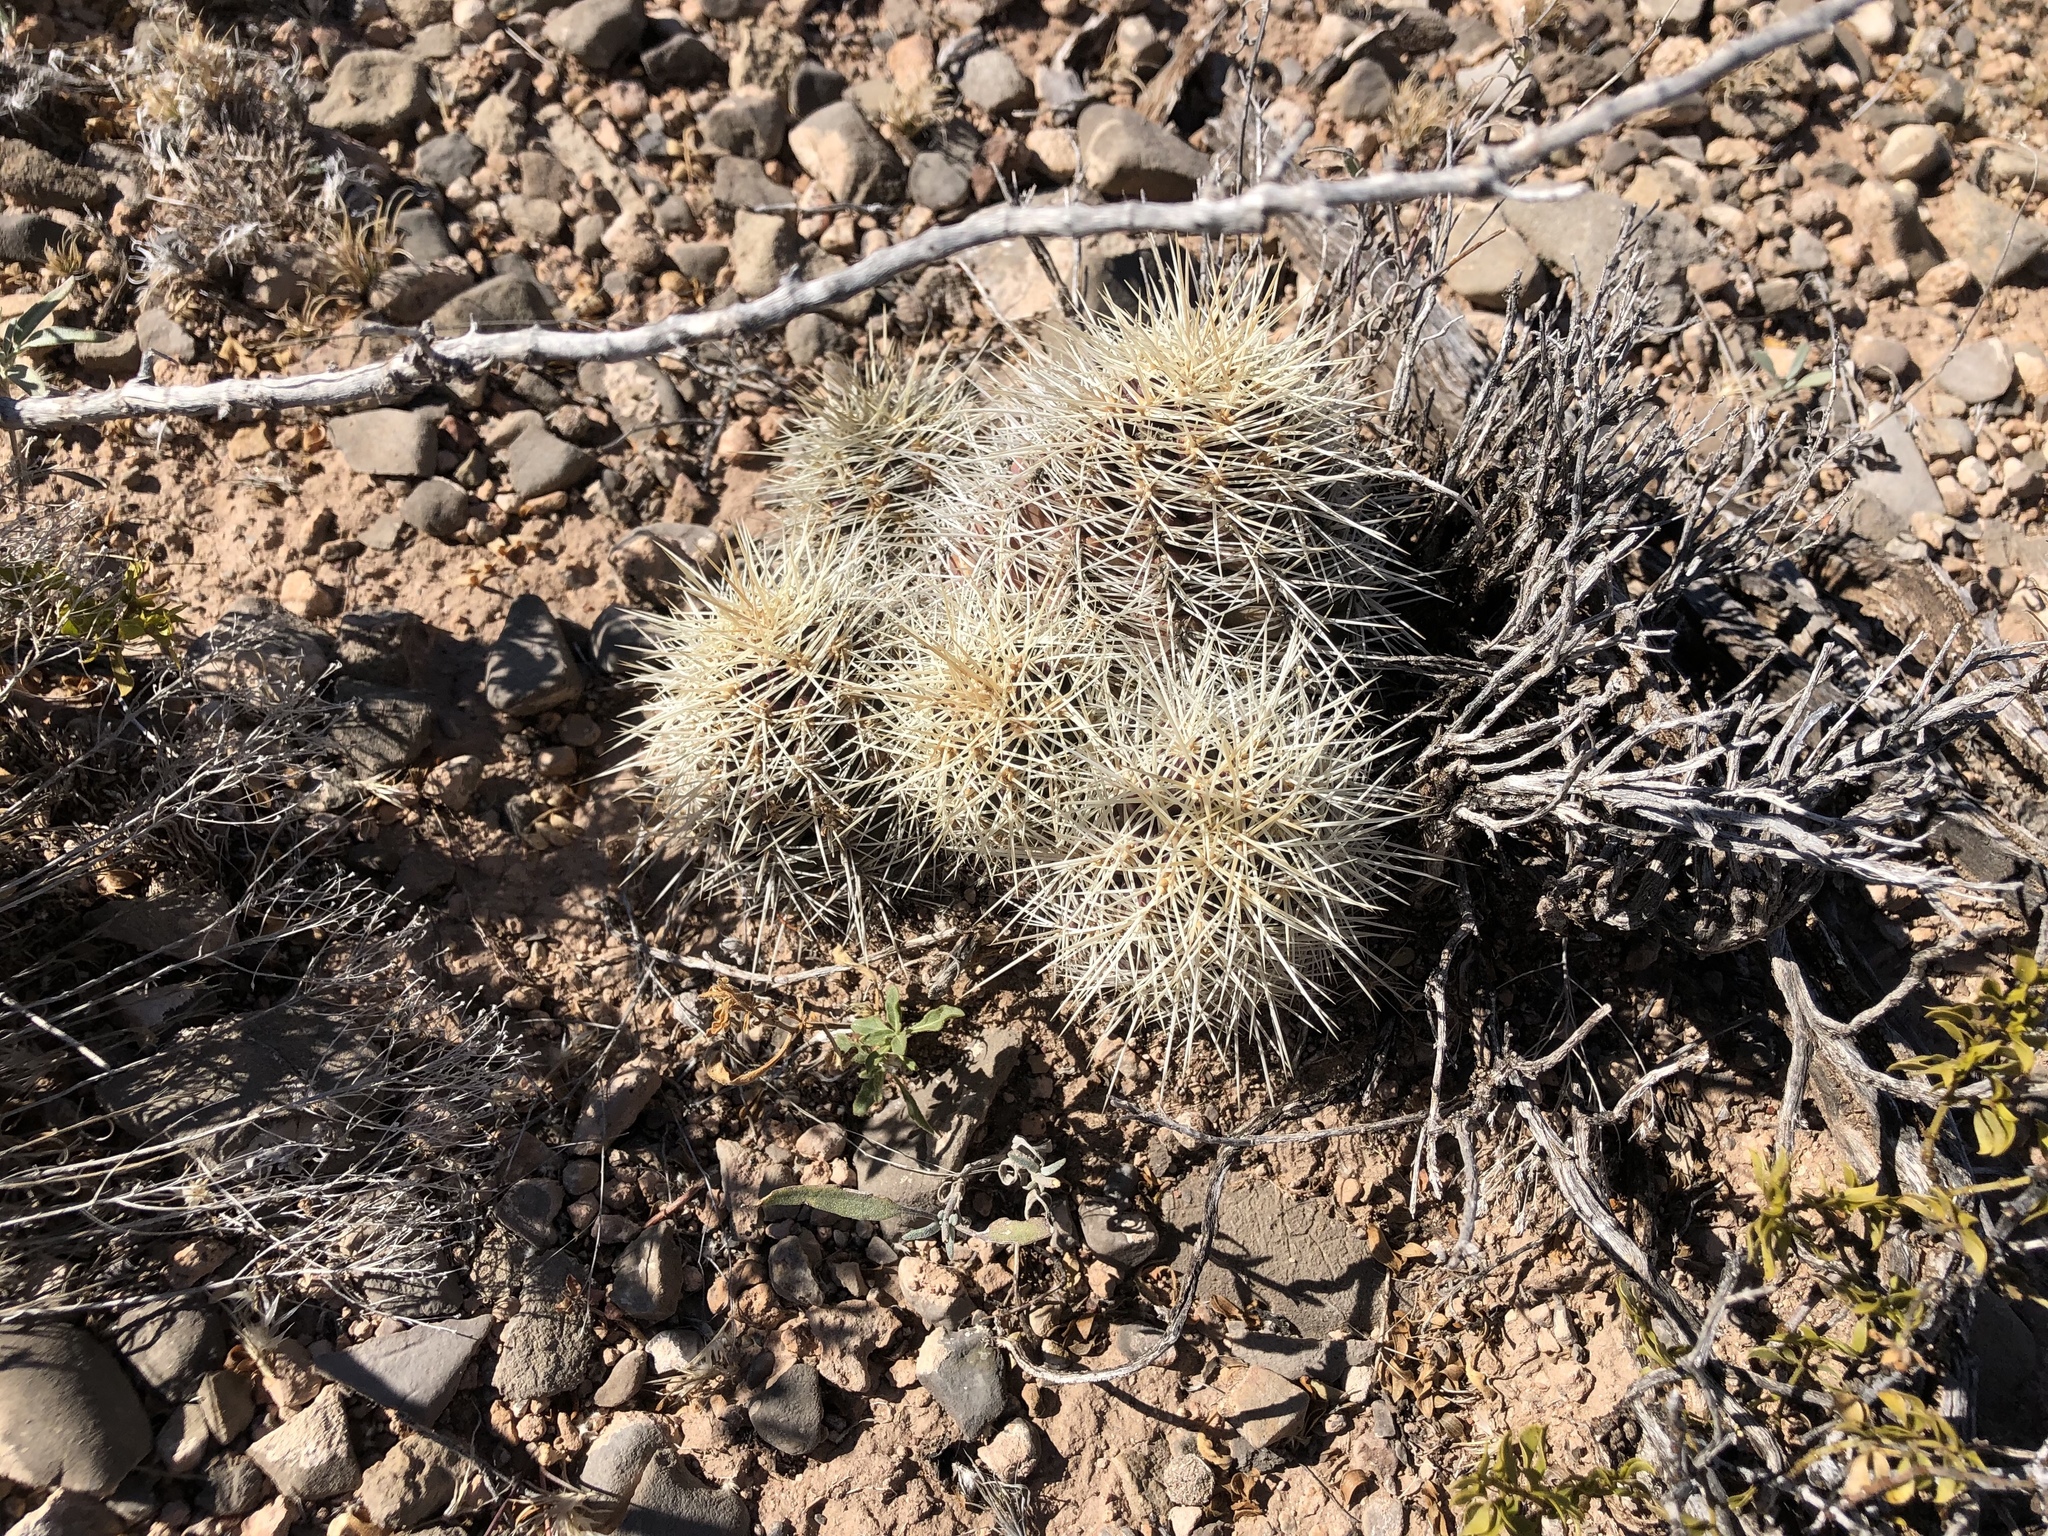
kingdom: Plantae
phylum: Tracheophyta
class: Magnoliopsida
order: Caryophyllales
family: Cactaceae
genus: Echinocereus
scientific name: Echinocereus coccineus
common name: Scarlet hedgehog cactus
